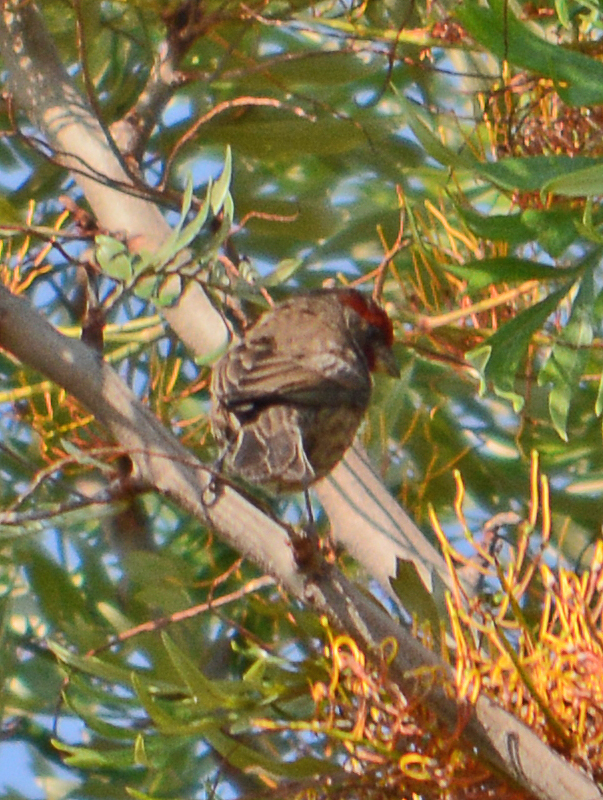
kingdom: Animalia
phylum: Chordata
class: Aves
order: Passeriformes
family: Fringillidae
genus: Haemorhous
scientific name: Haemorhous mexicanus
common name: House finch
